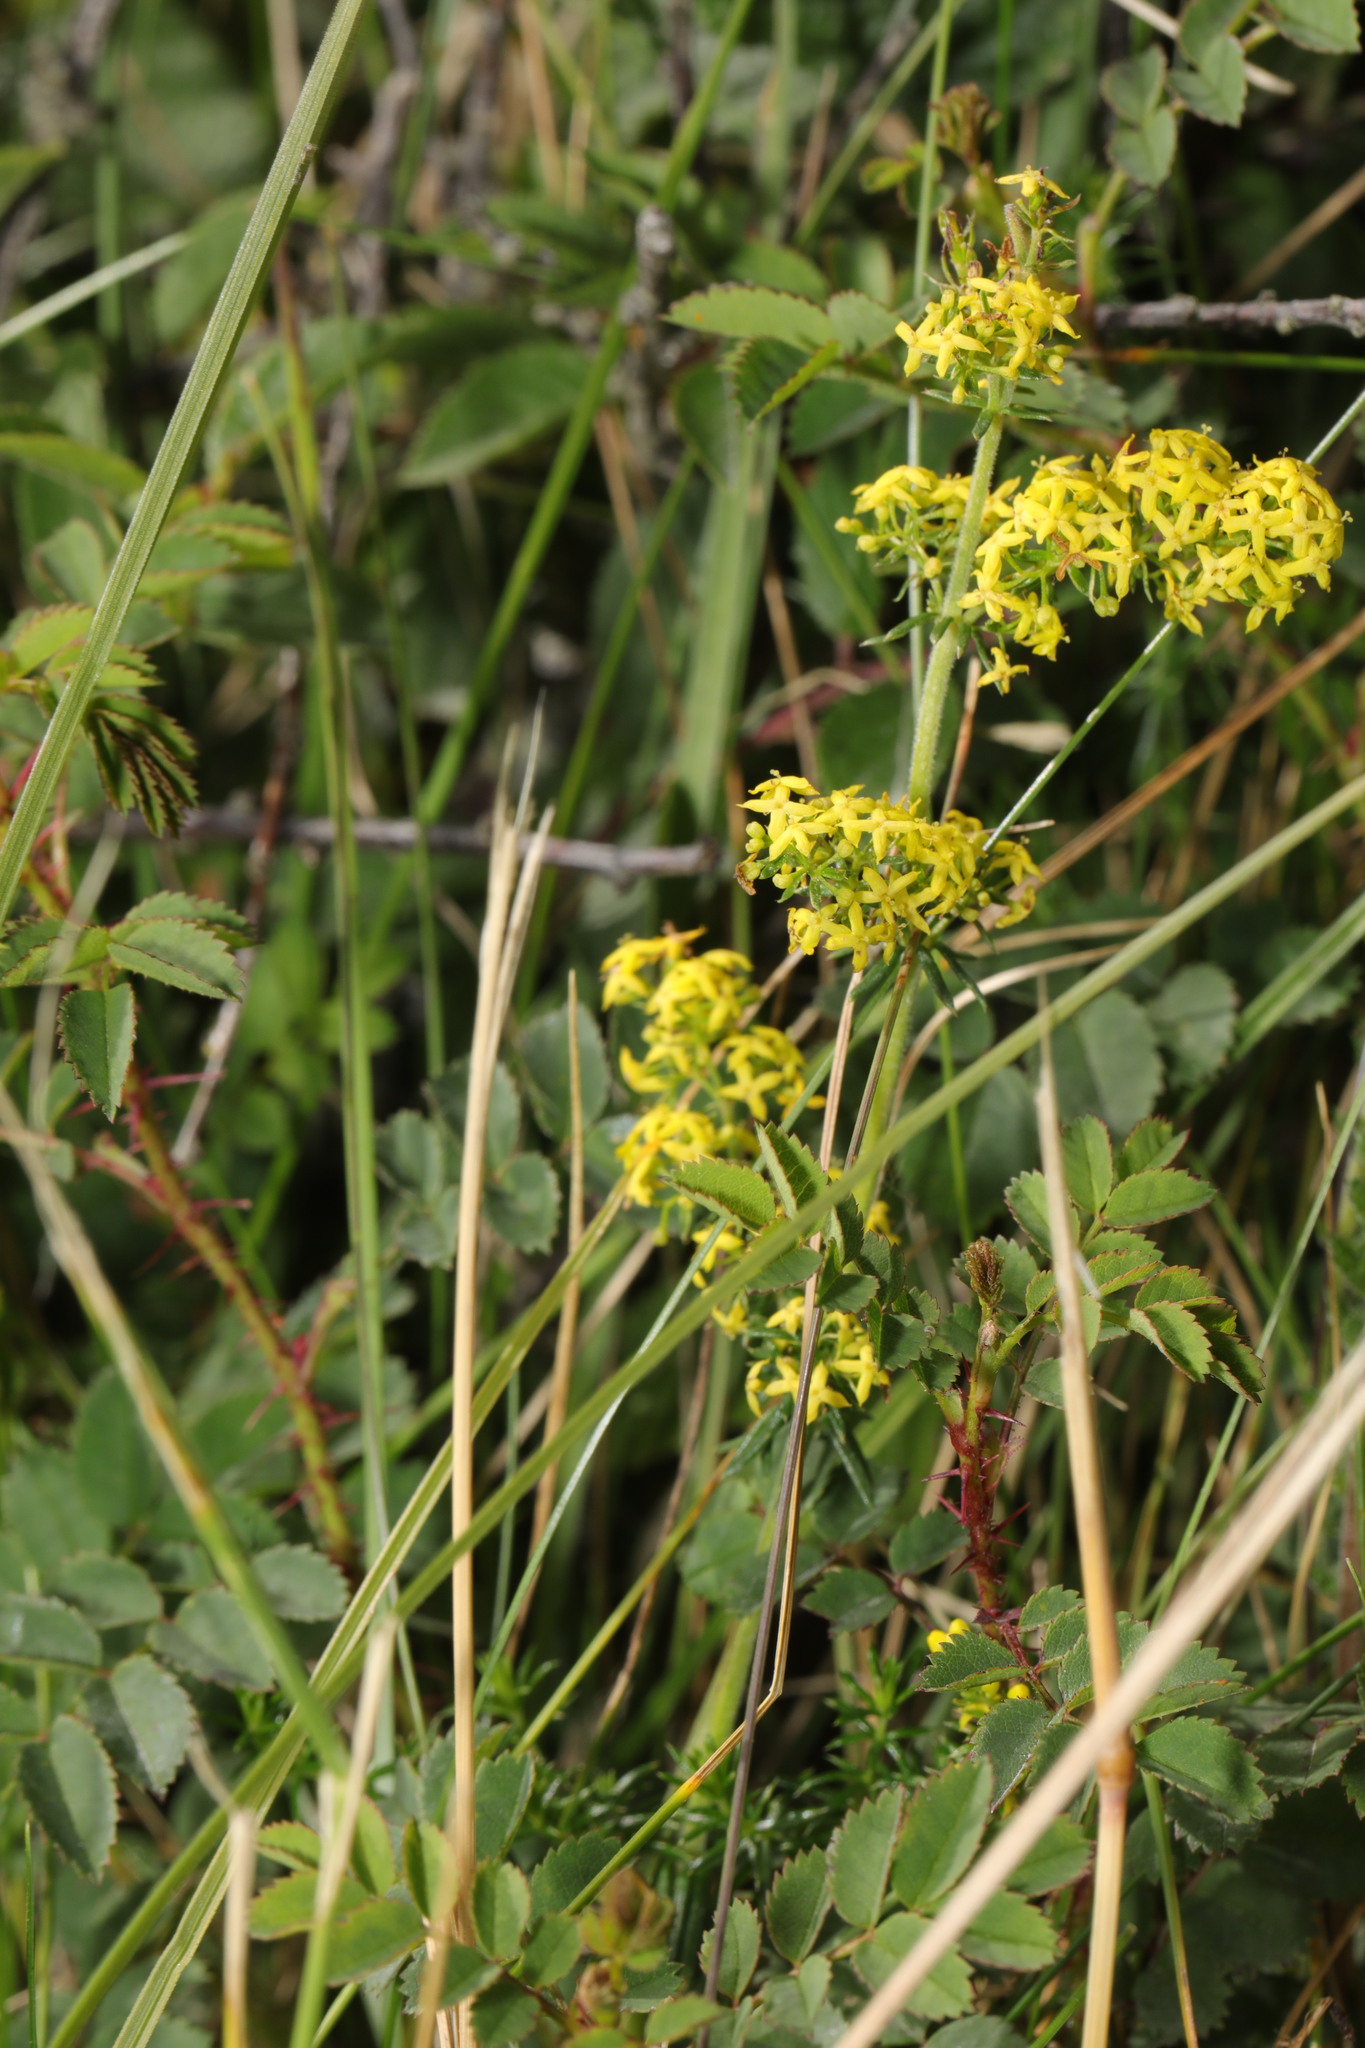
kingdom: Plantae
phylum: Tracheophyta
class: Magnoliopsida
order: Gentianales
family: Rubiaceae
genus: Galium
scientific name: Galium verum
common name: Lady's bedstraw
